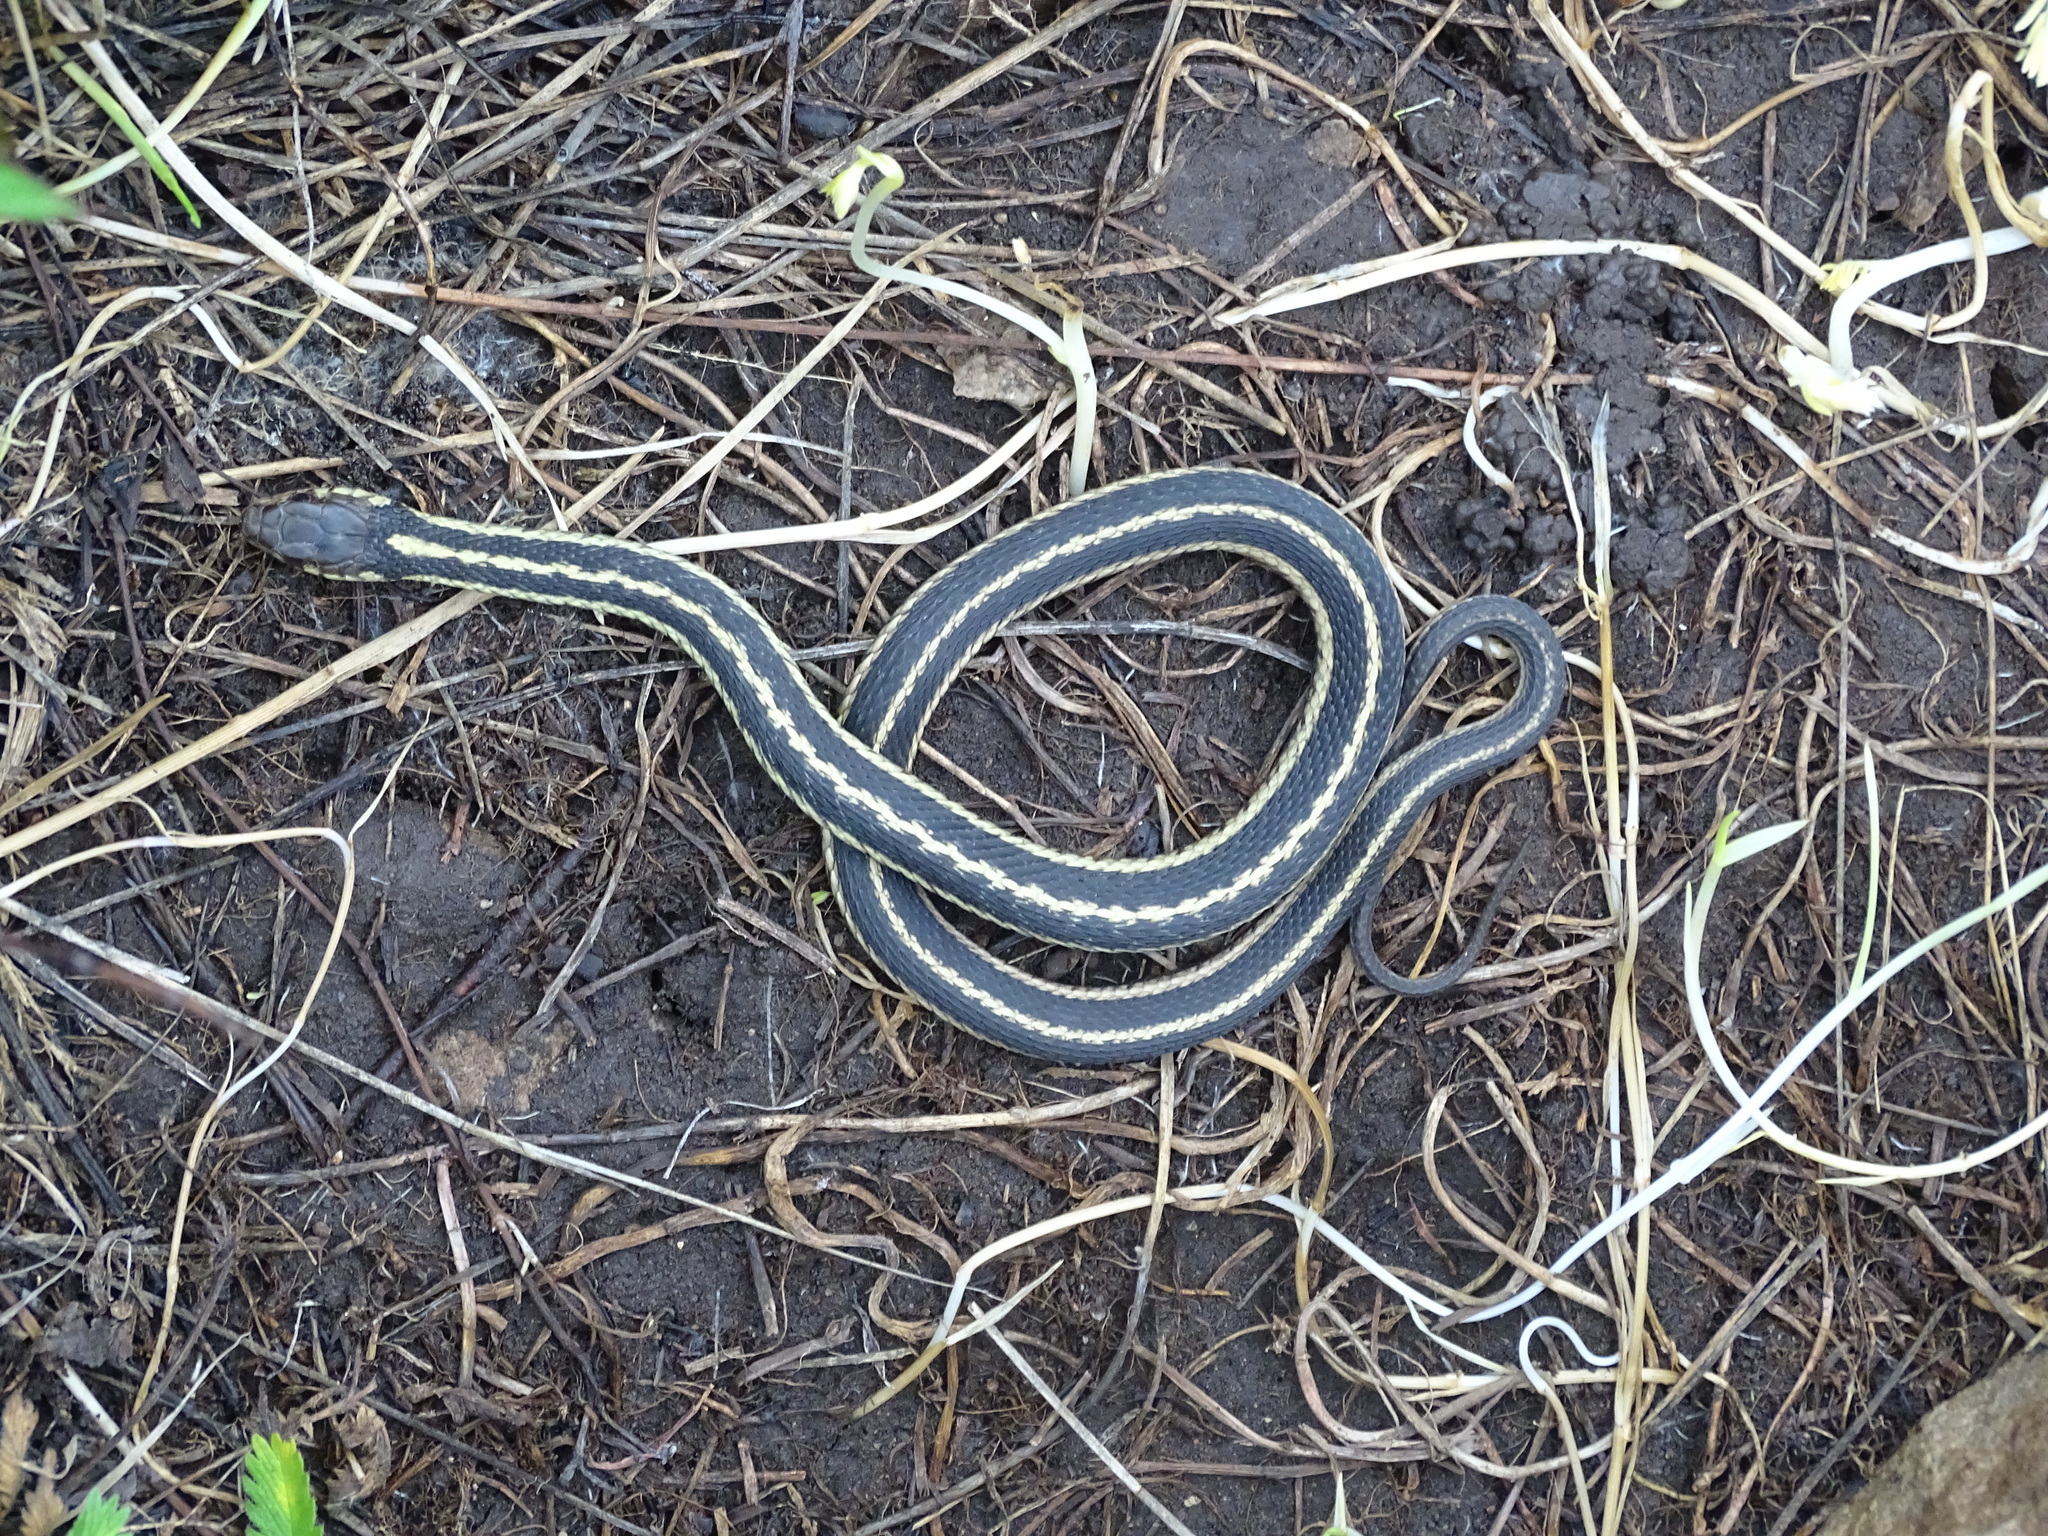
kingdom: Animalia
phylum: Chordata
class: Squamata
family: Colubridae
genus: Thamnophis
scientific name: Thamnophis sirtalis
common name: Common garter snake
